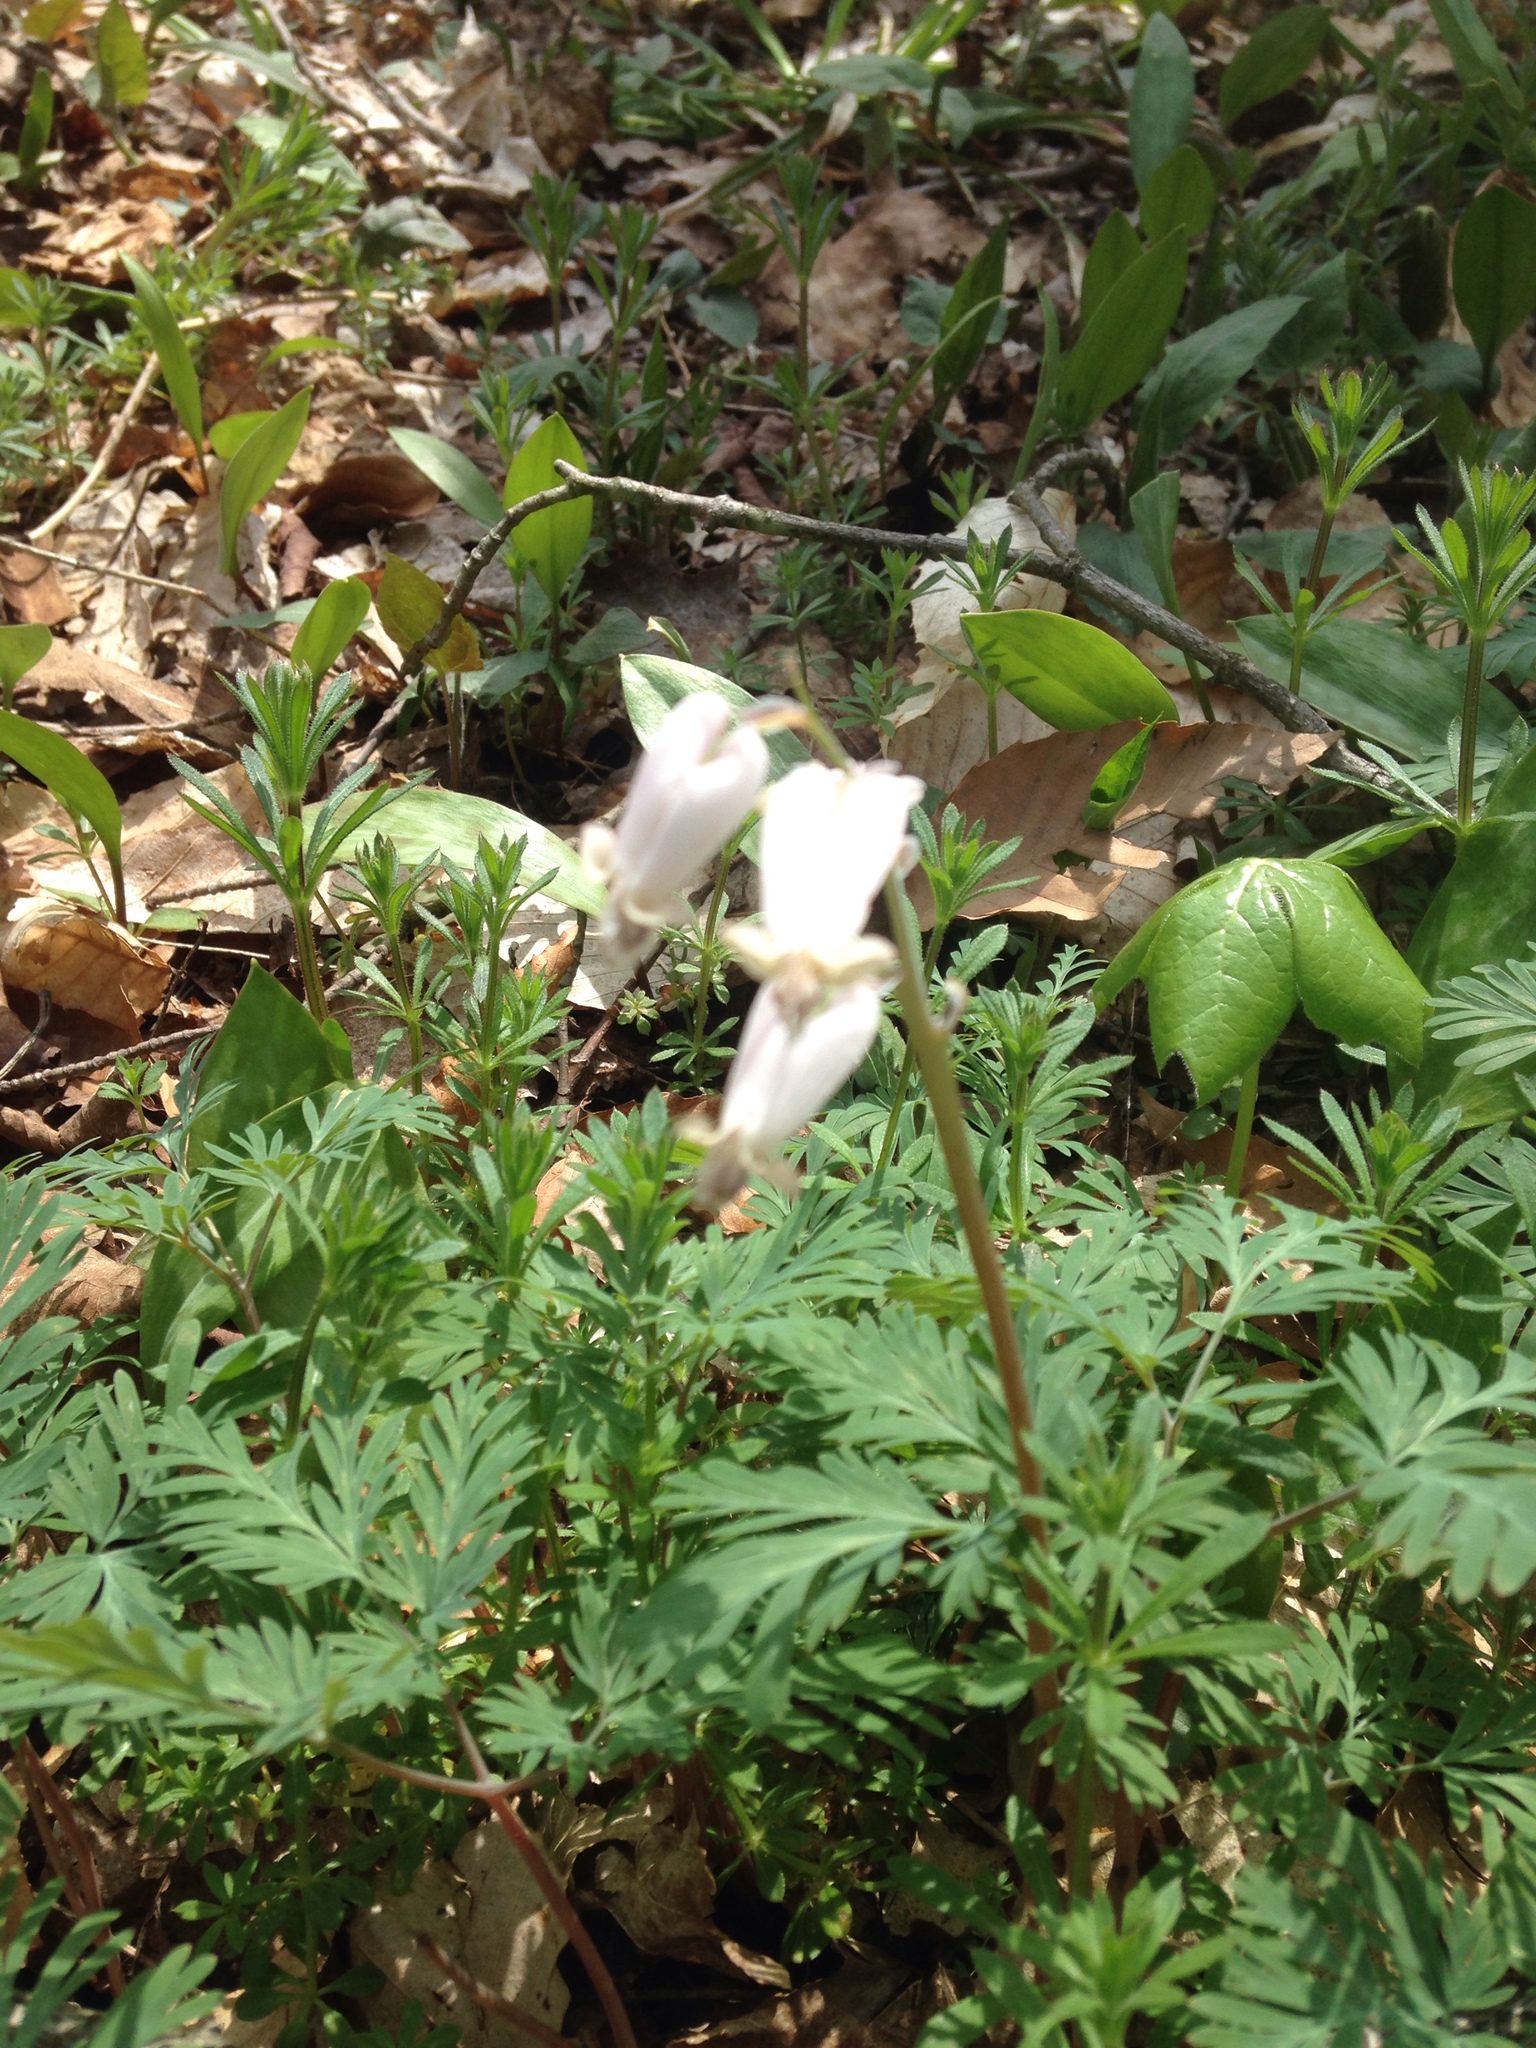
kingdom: Plantae
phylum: Tracheophyta
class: Magnoliopsida
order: Ranunculales
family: Papaveraceae
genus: Dicentra
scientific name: Dicentra canadensis
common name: Squirrel-corn
